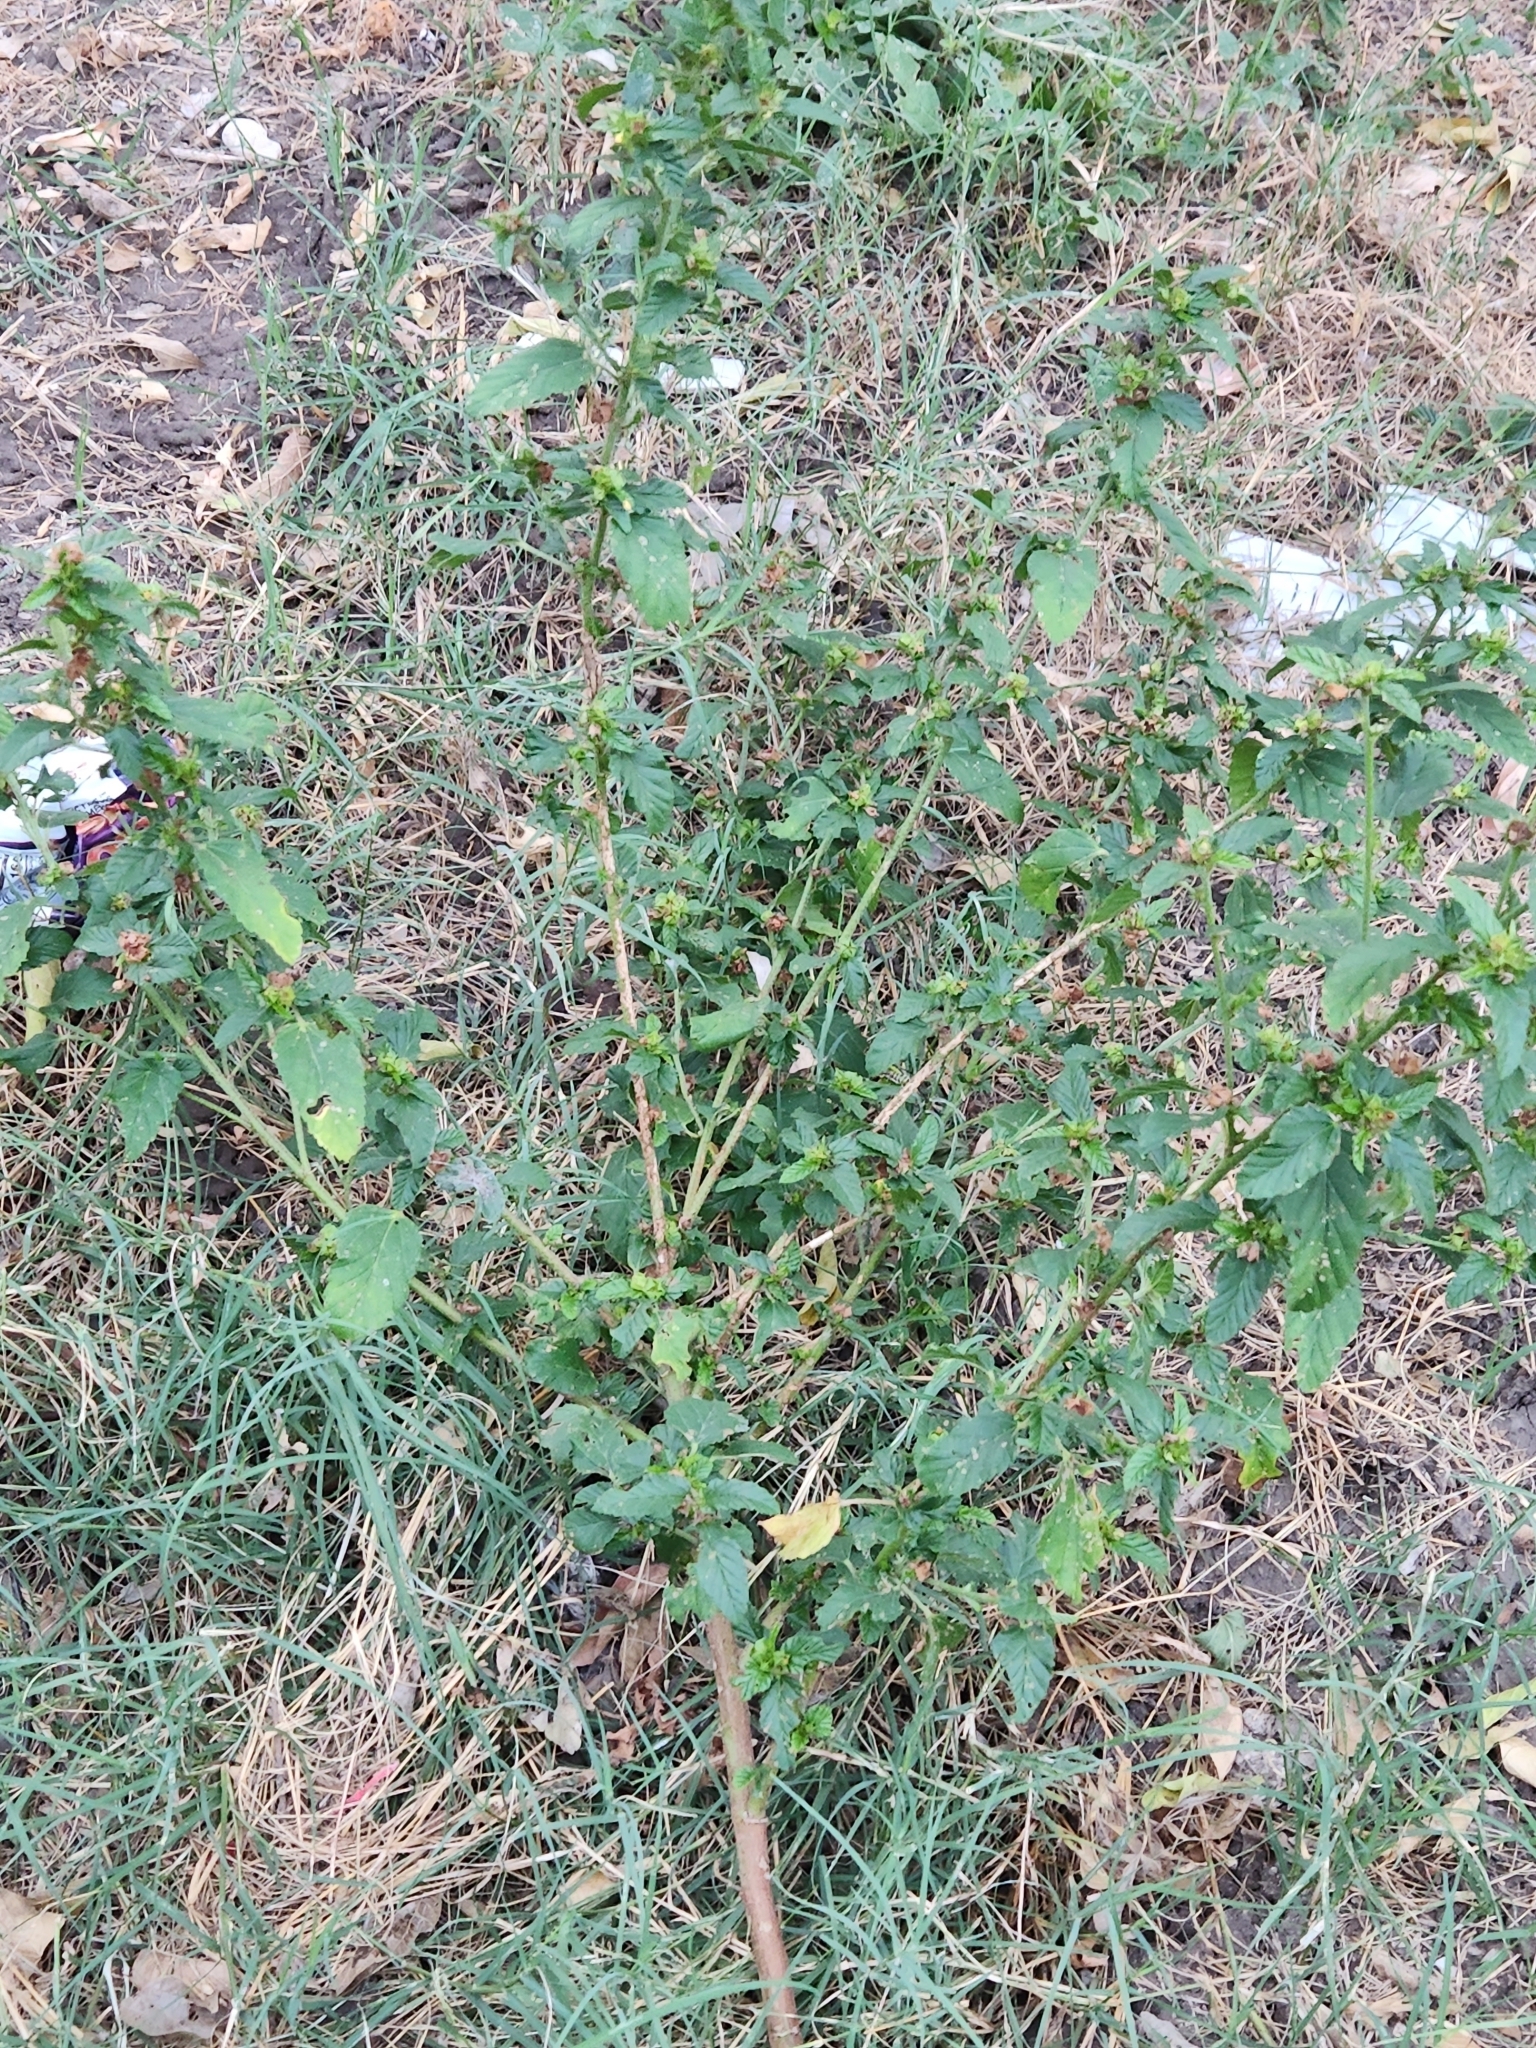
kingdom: Plantae
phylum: Tracheophyta
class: Magnoliopsida
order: Malvales
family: Malvaceae
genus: Malvastrum
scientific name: Malvastrum coromandelianum
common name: Threelobe false mallow
